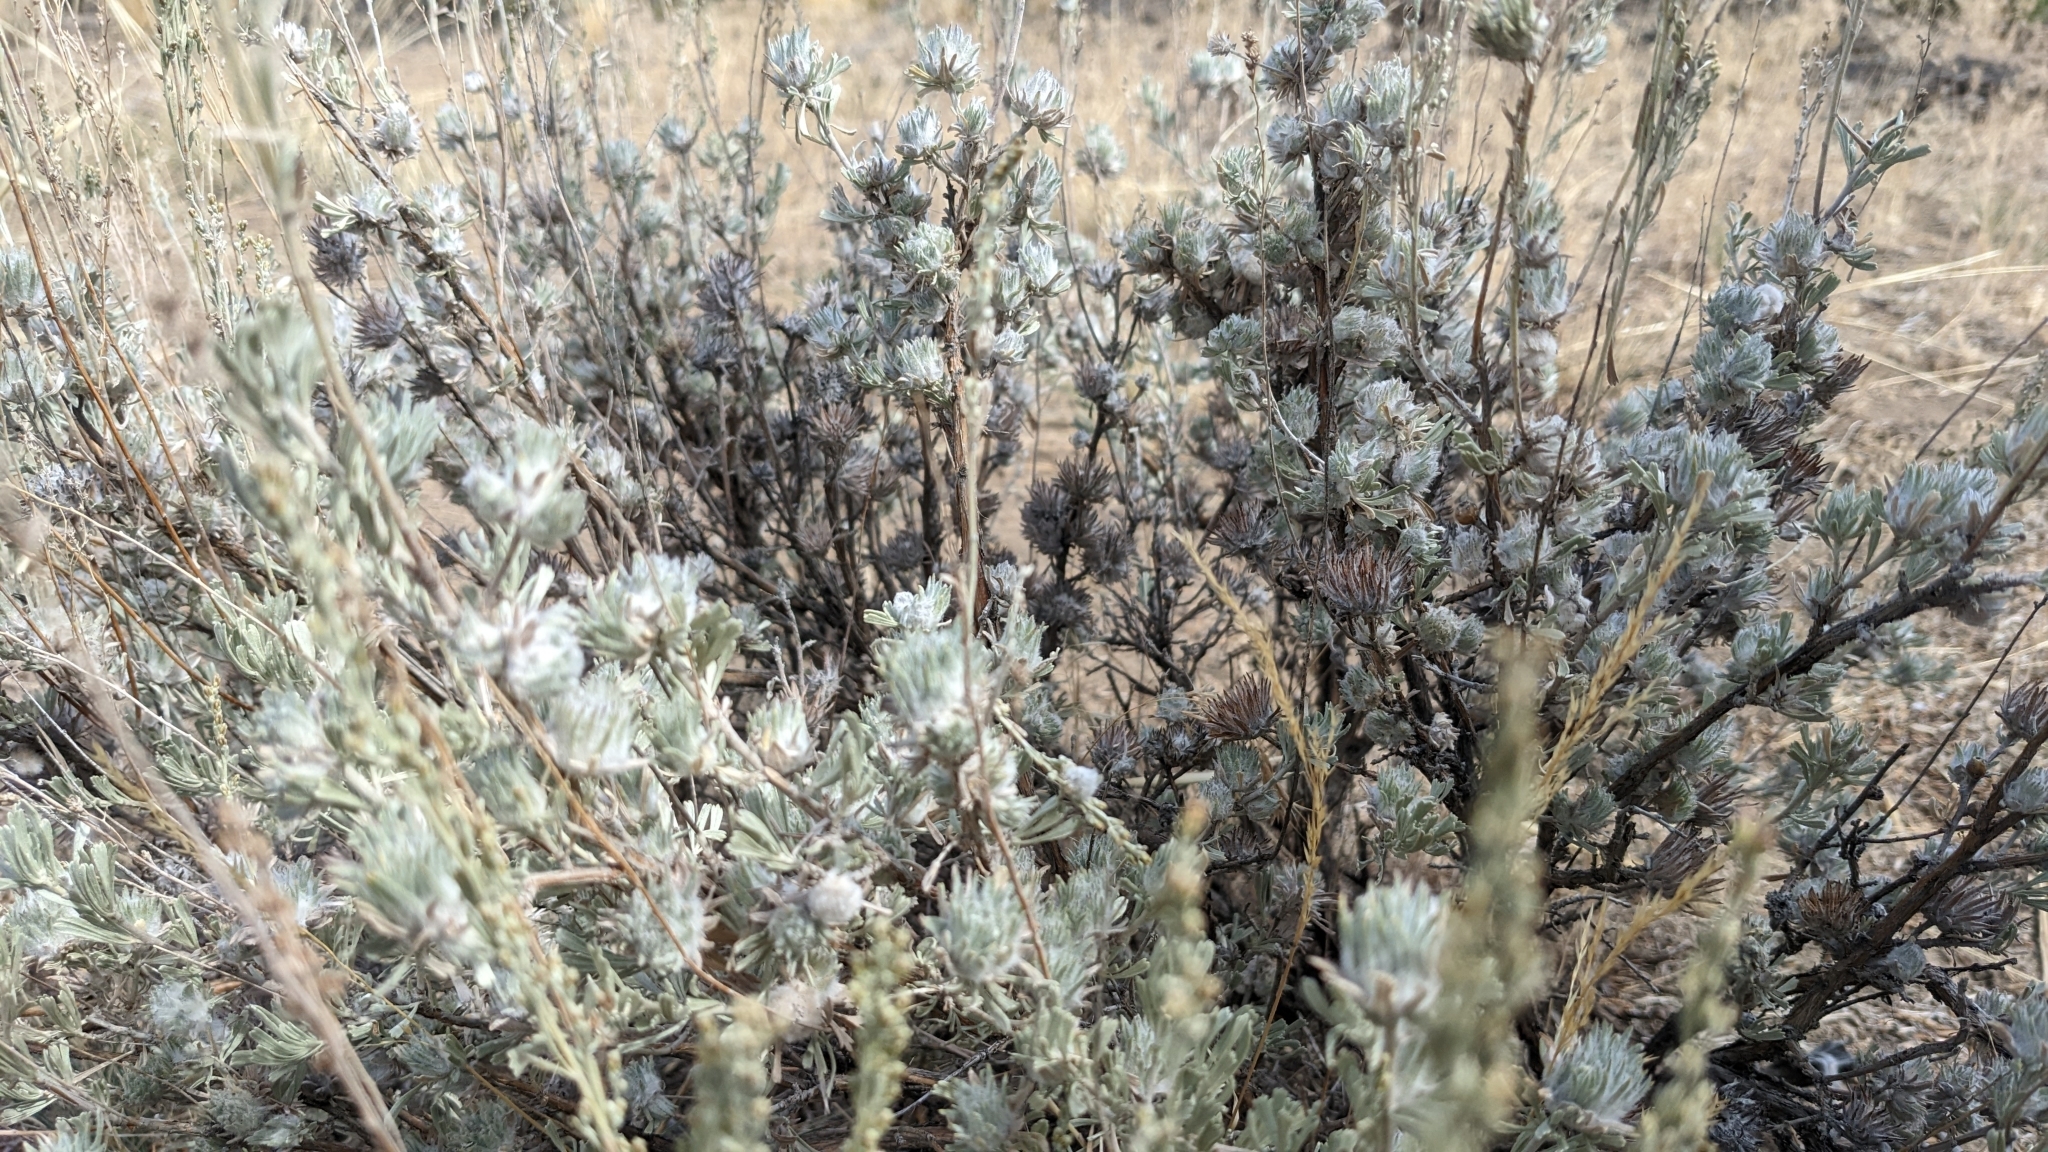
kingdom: Animalia
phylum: Arthropoda
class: Insecta
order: Diptera
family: Cecidomyiidae
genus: Rhopalomyia
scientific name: Rhopalomyia anthoides
